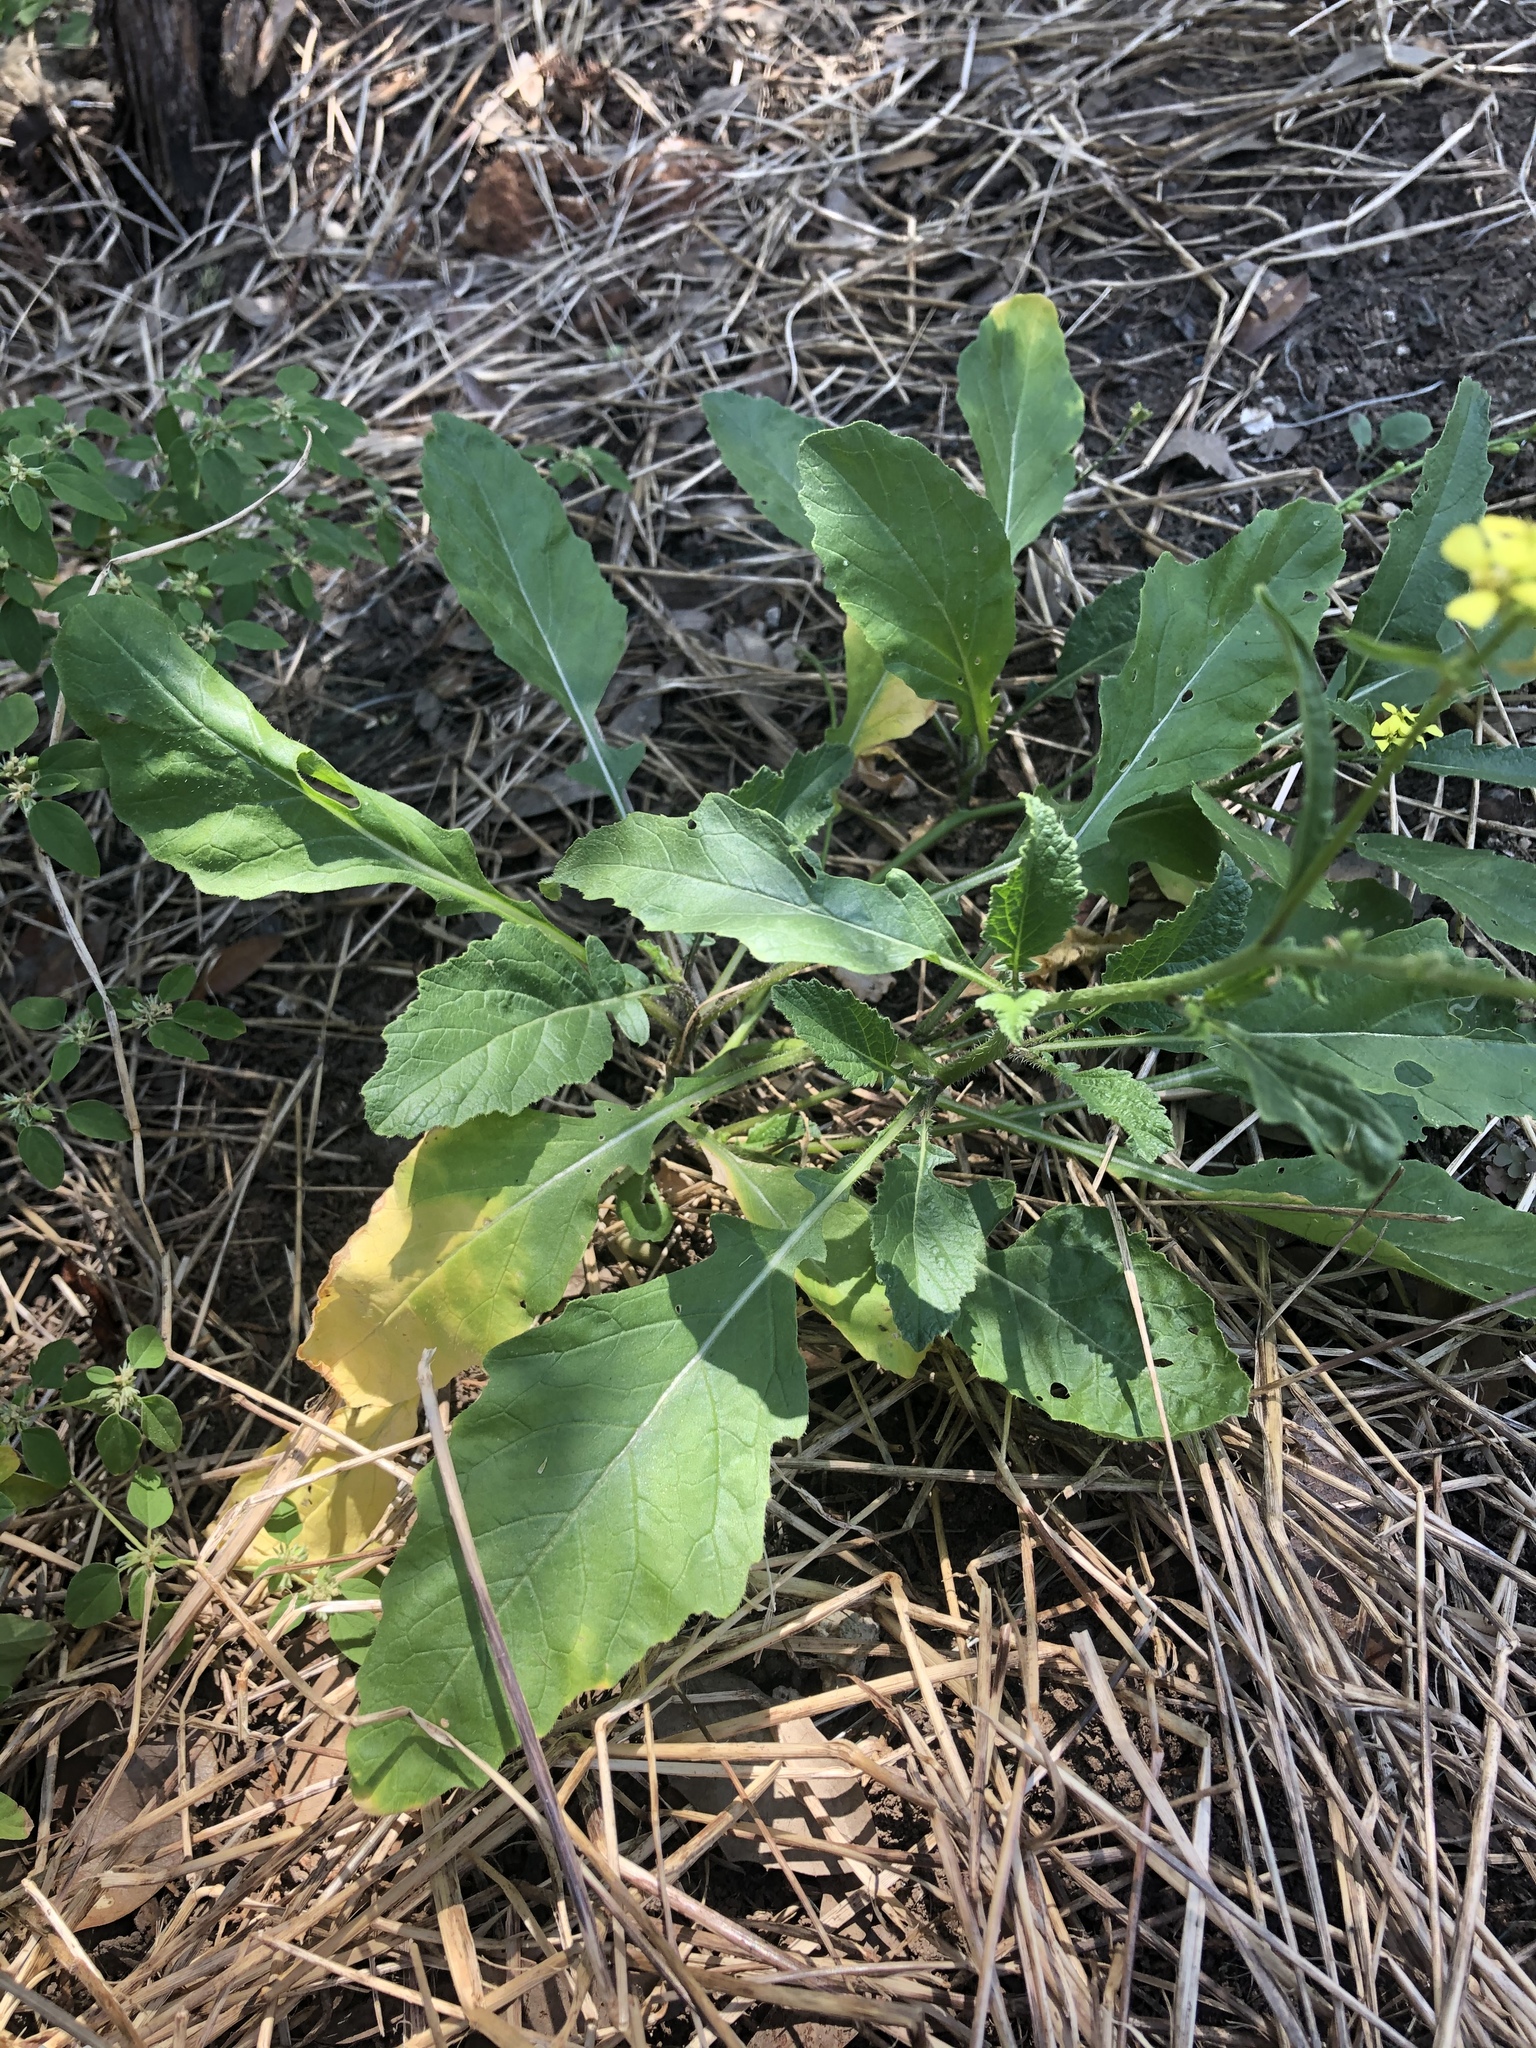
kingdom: Plantae
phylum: Tracheophyta
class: Magnoliopsida
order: Brassicales
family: Brassicaceae
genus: Rapistrum
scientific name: Rapistrum rugosum
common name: Annual bastardcabbage
